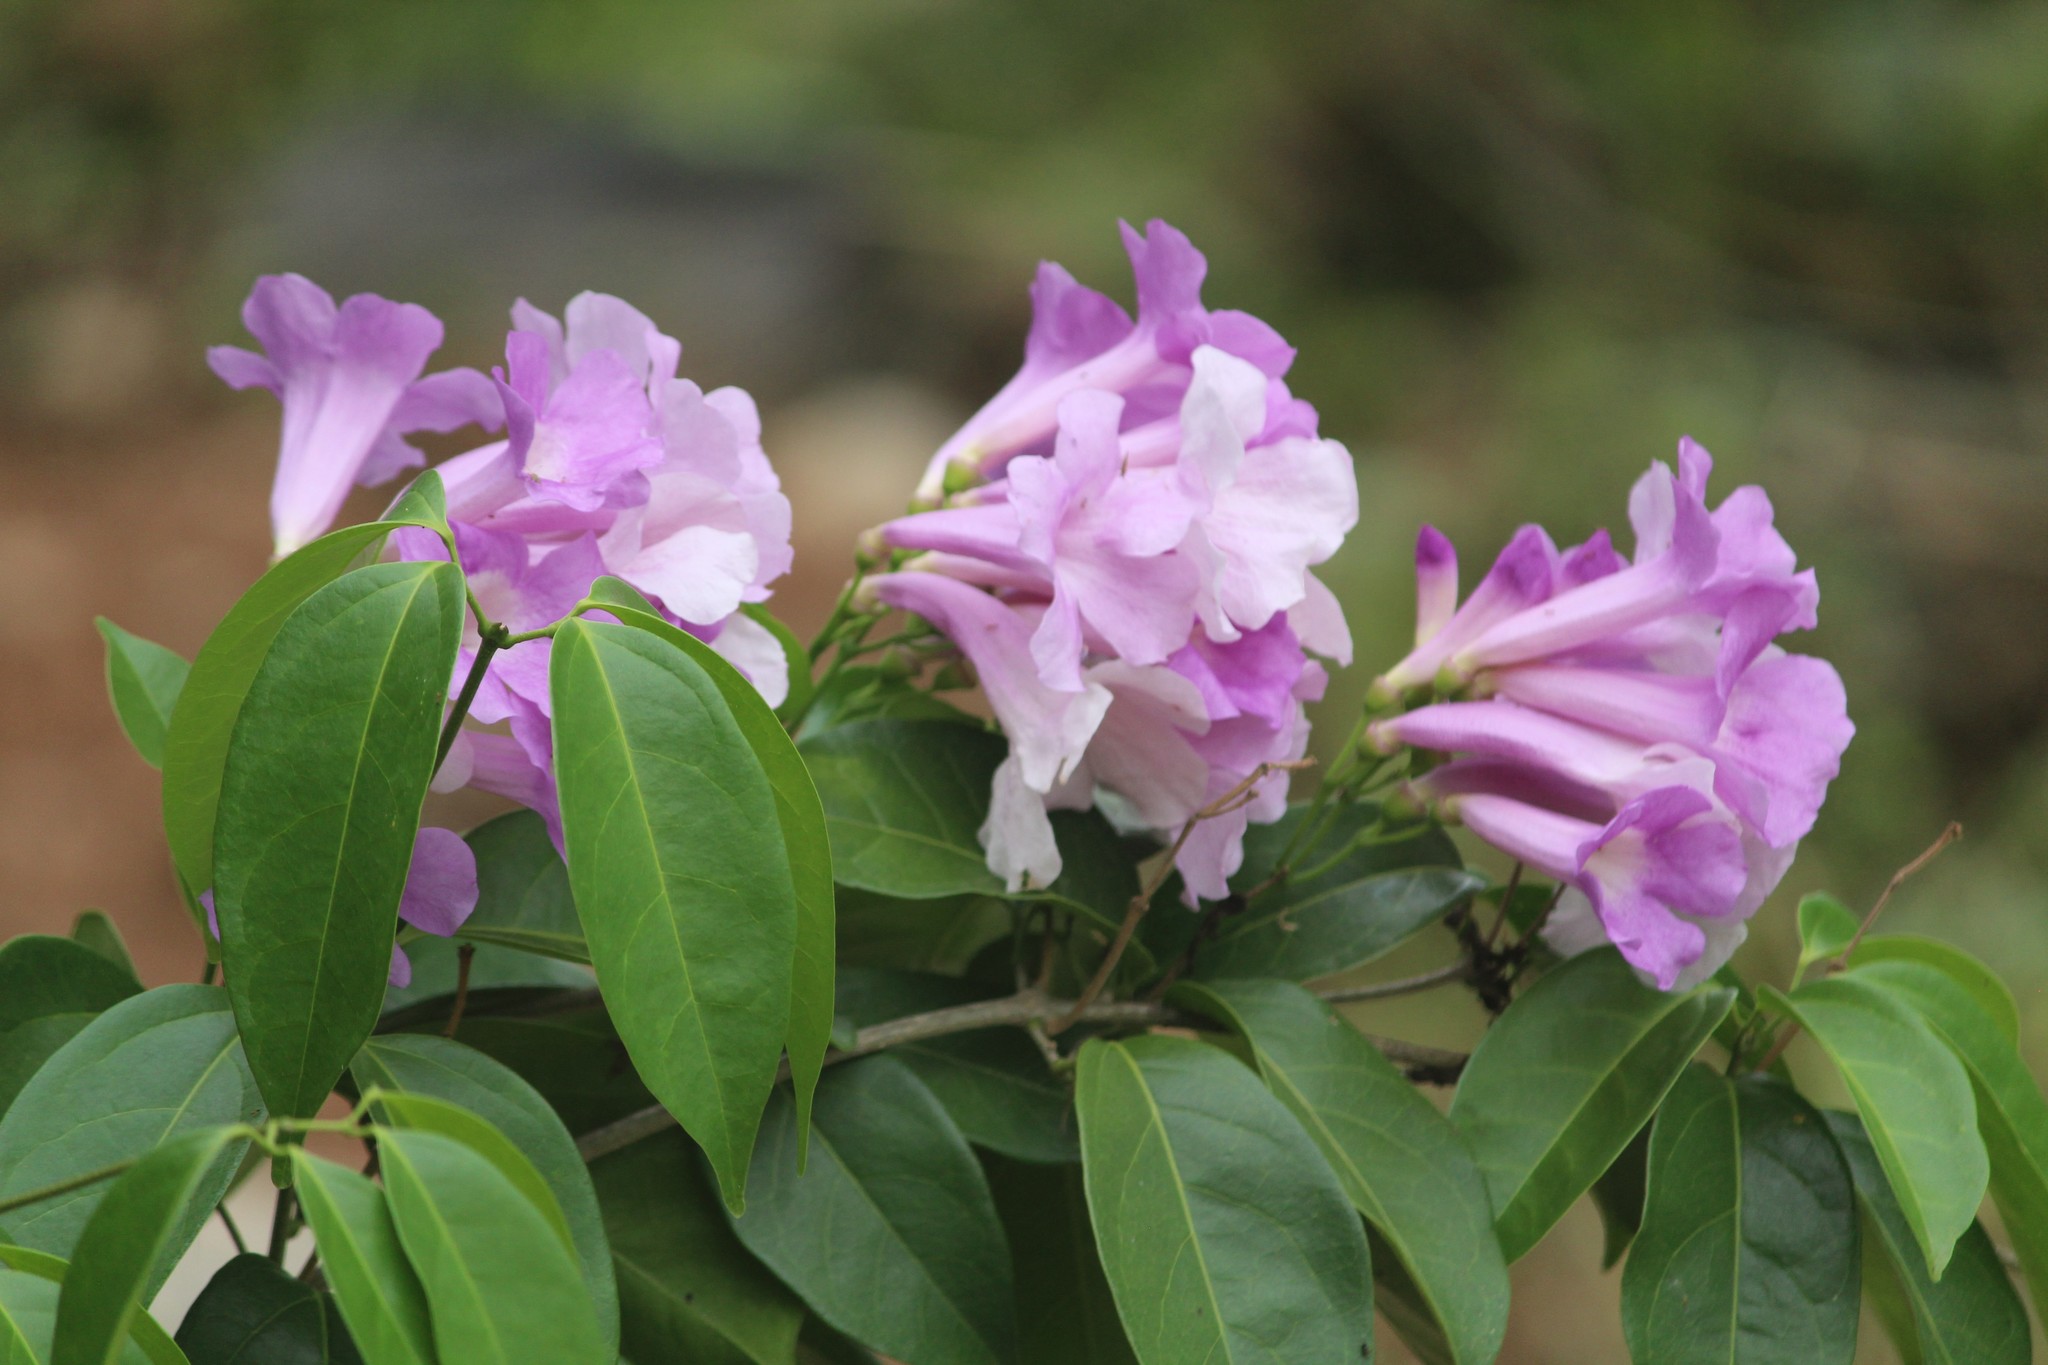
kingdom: Plantae
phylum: Tracheophyta
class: Magnoliopsida
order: Lamiales
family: Bignoniaceae
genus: Mansoa
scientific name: Mansoa alliacea
